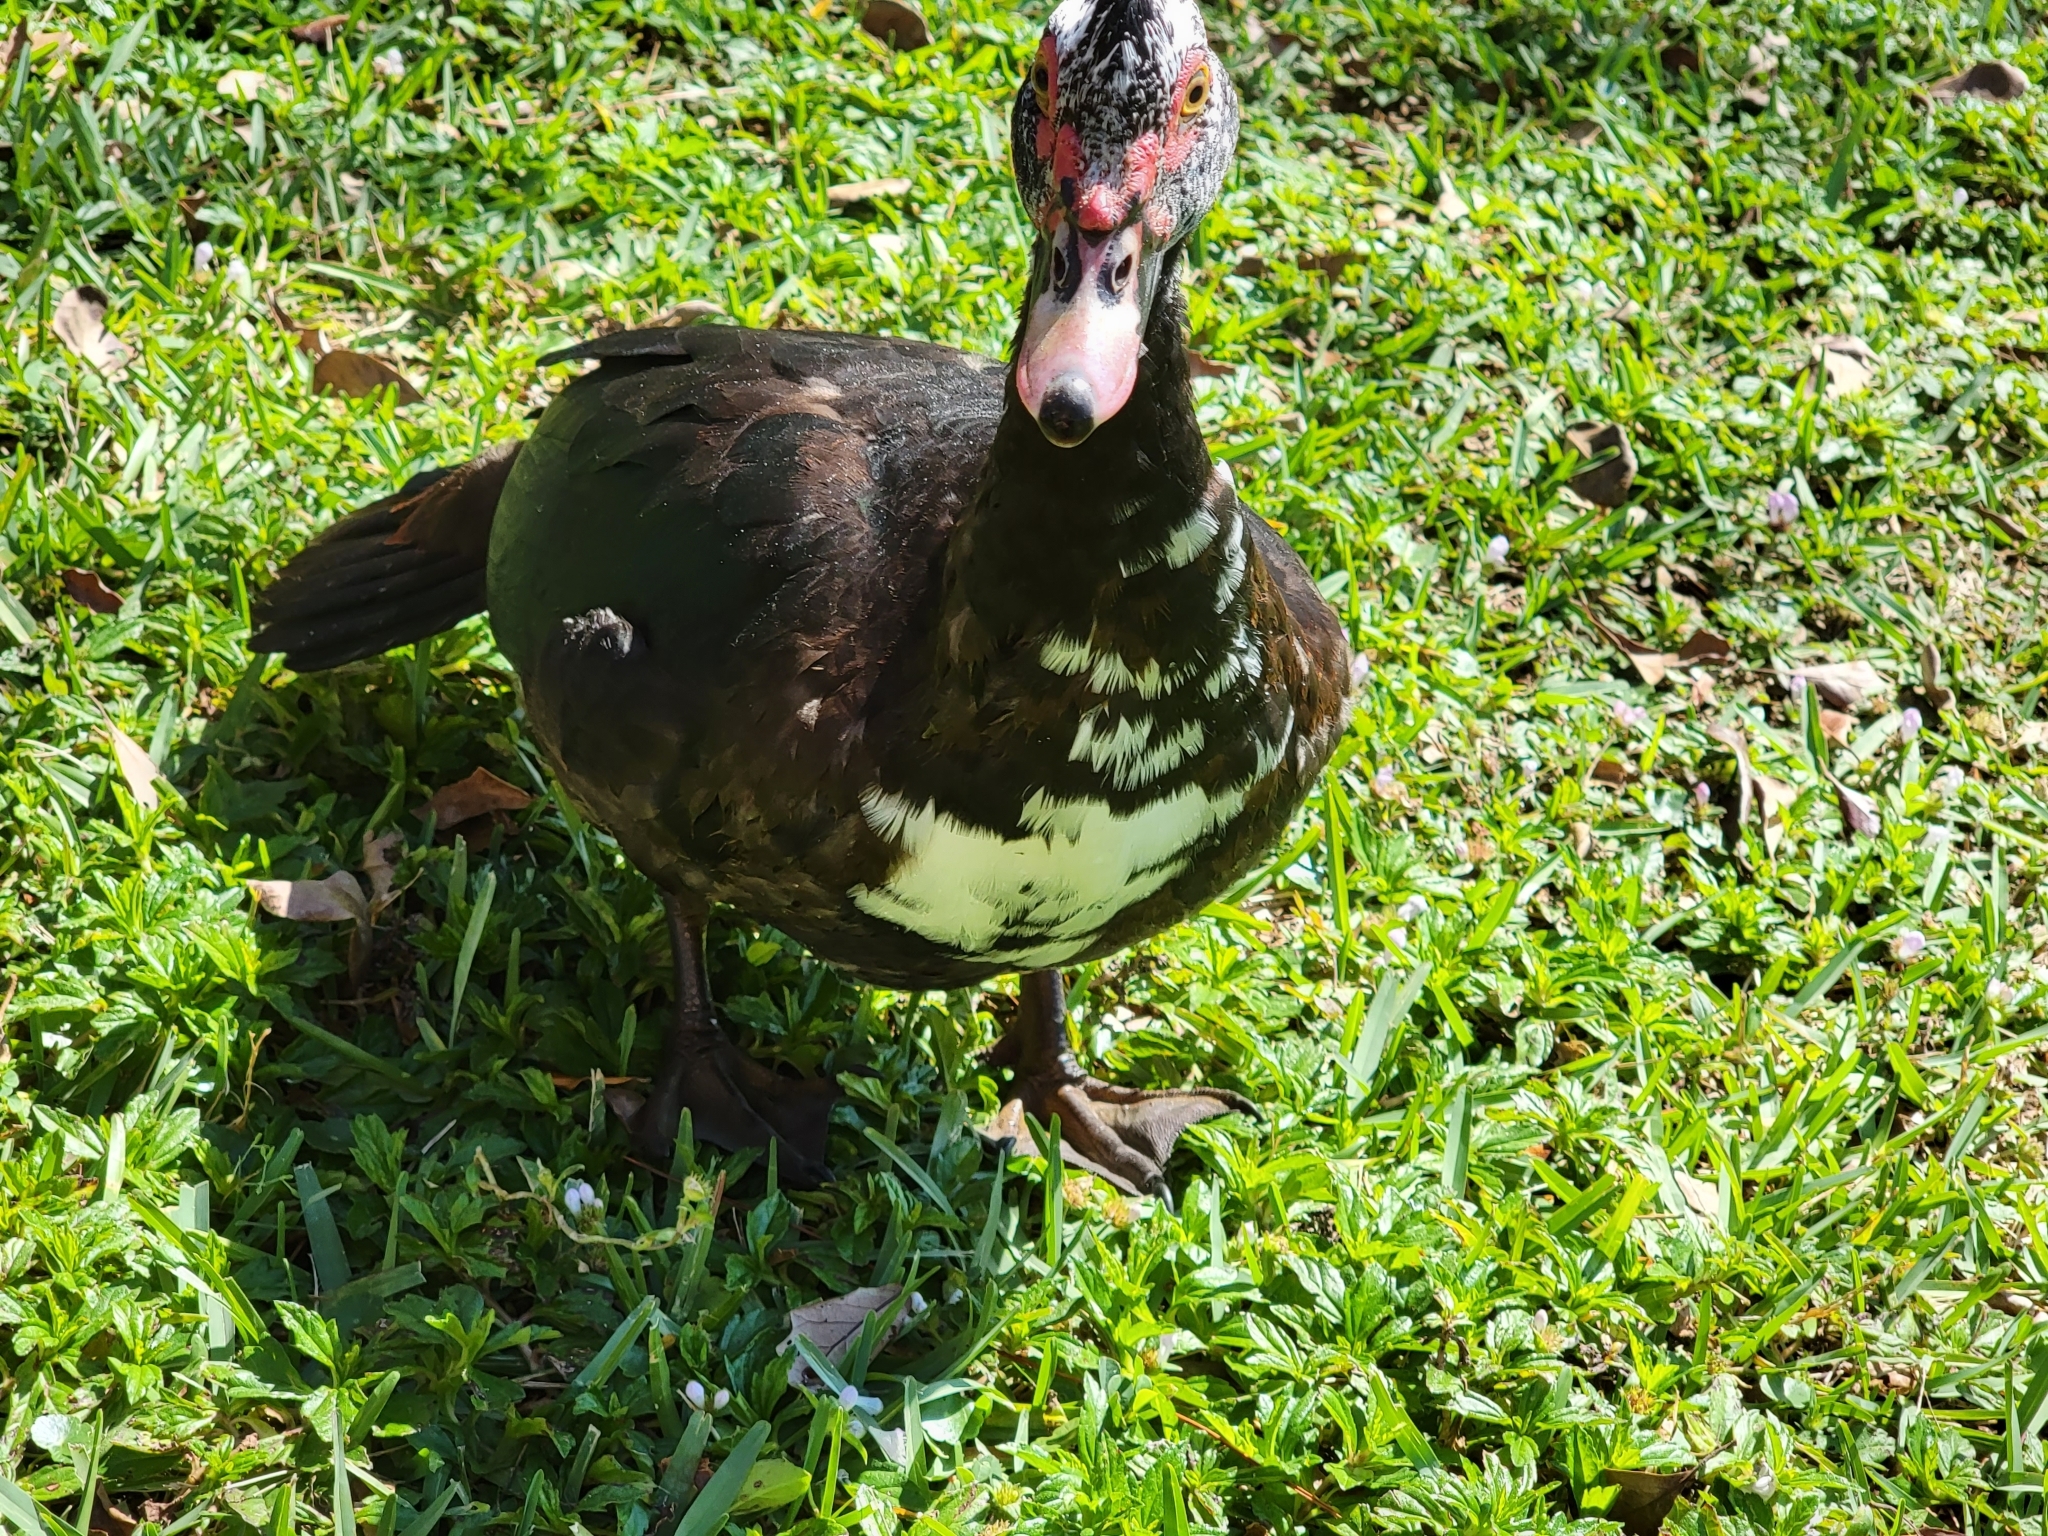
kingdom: Animalia
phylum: Chordata
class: Aves
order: Anseriformes
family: Anatidae
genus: Cairina
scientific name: Cairina moschata
